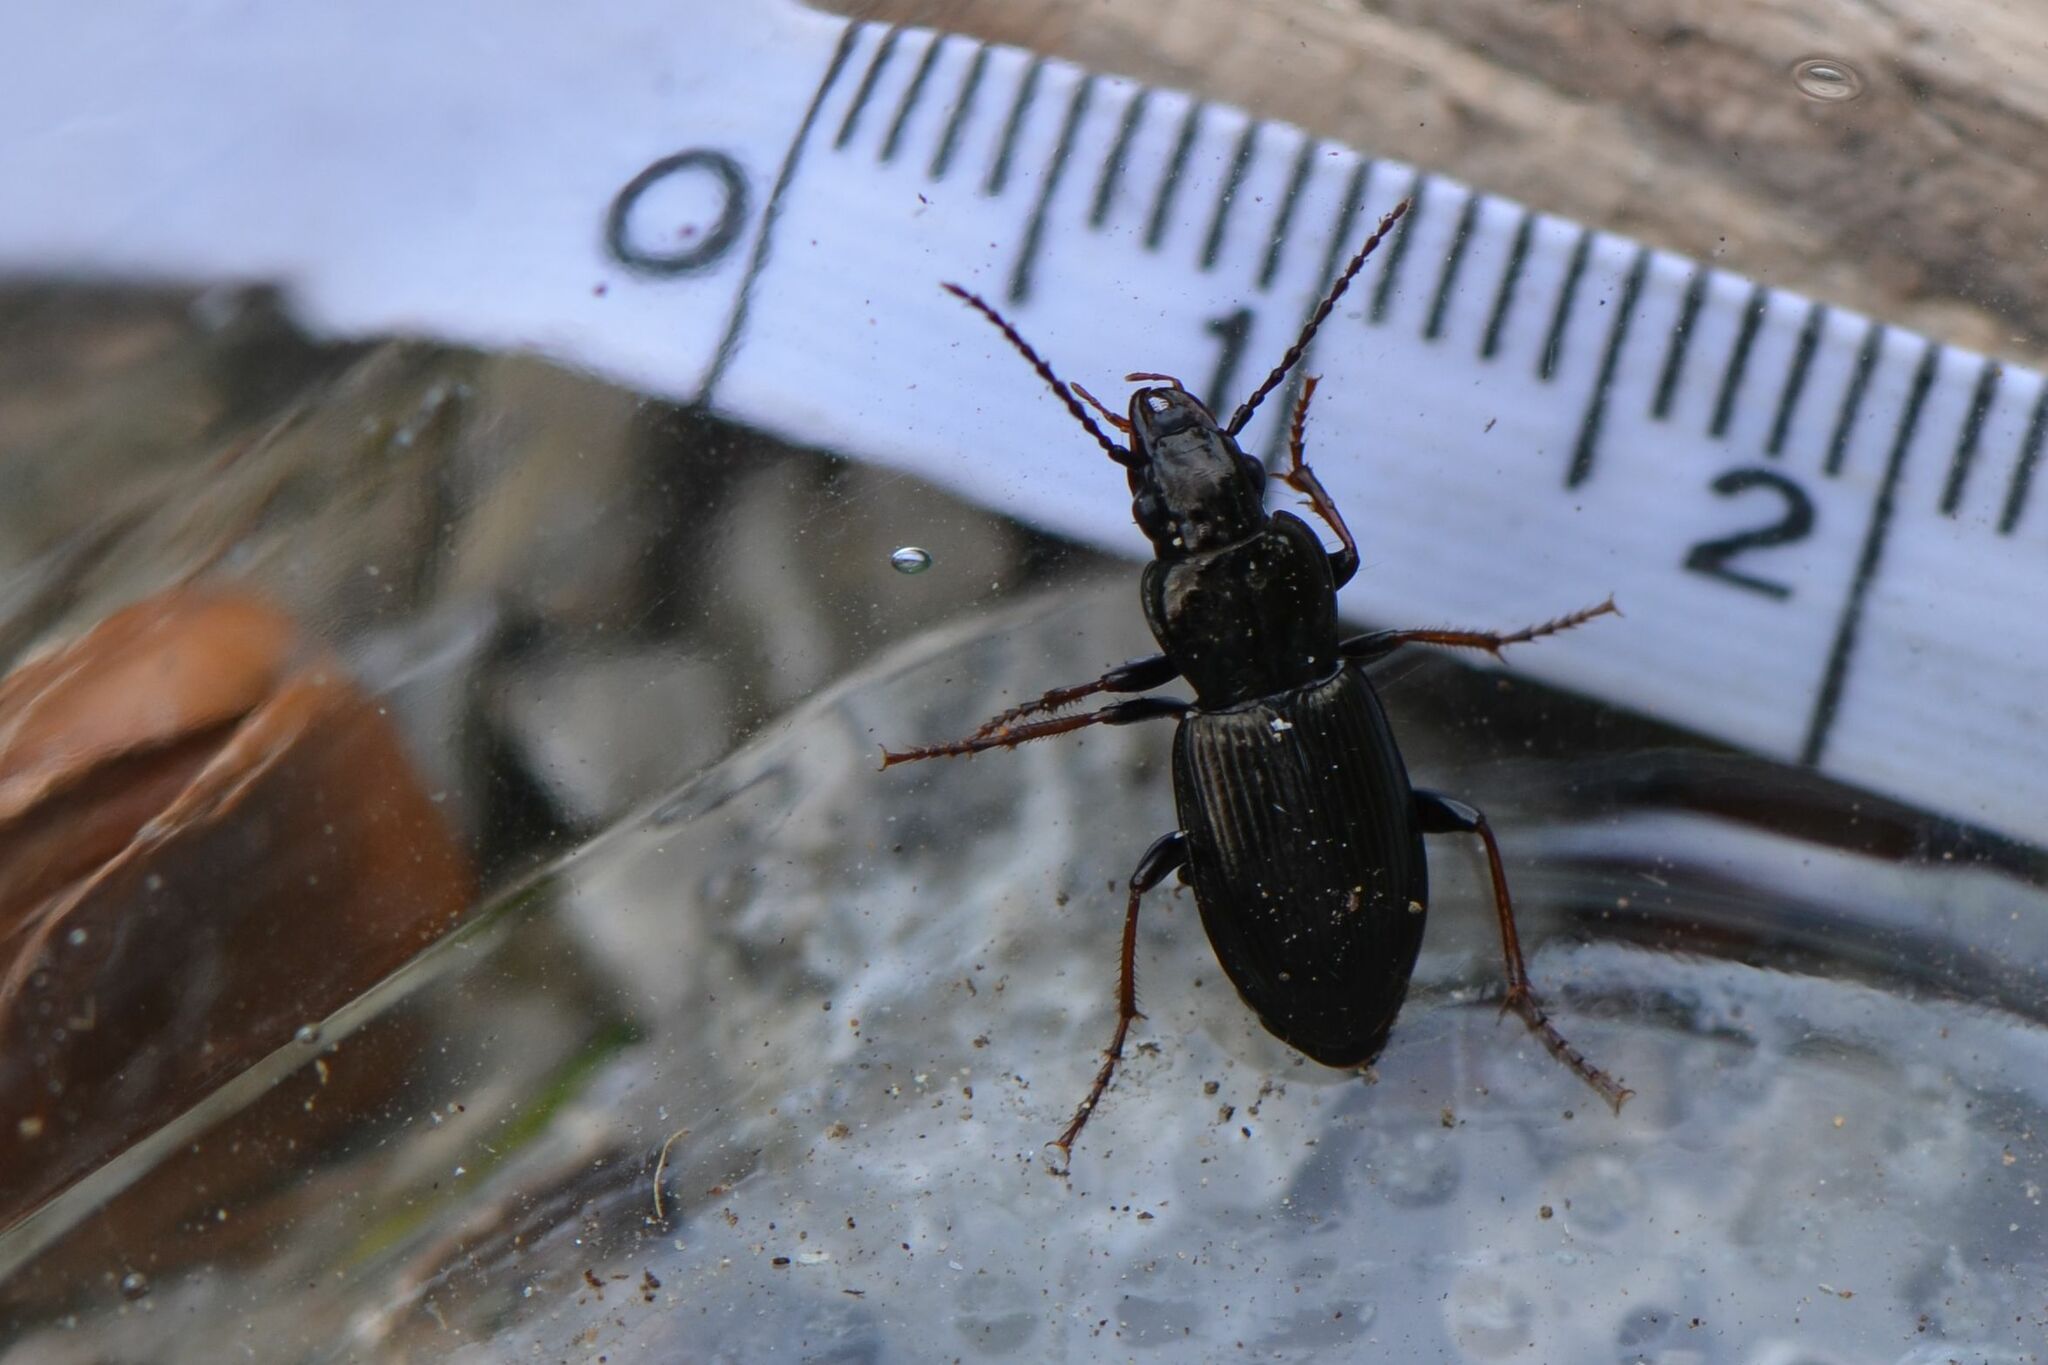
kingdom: Animalia
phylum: Arthropoda
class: Insecta
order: Coleoptera
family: Carabidae
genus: Pterostichus
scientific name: Pterostichus oblongopunctatus
